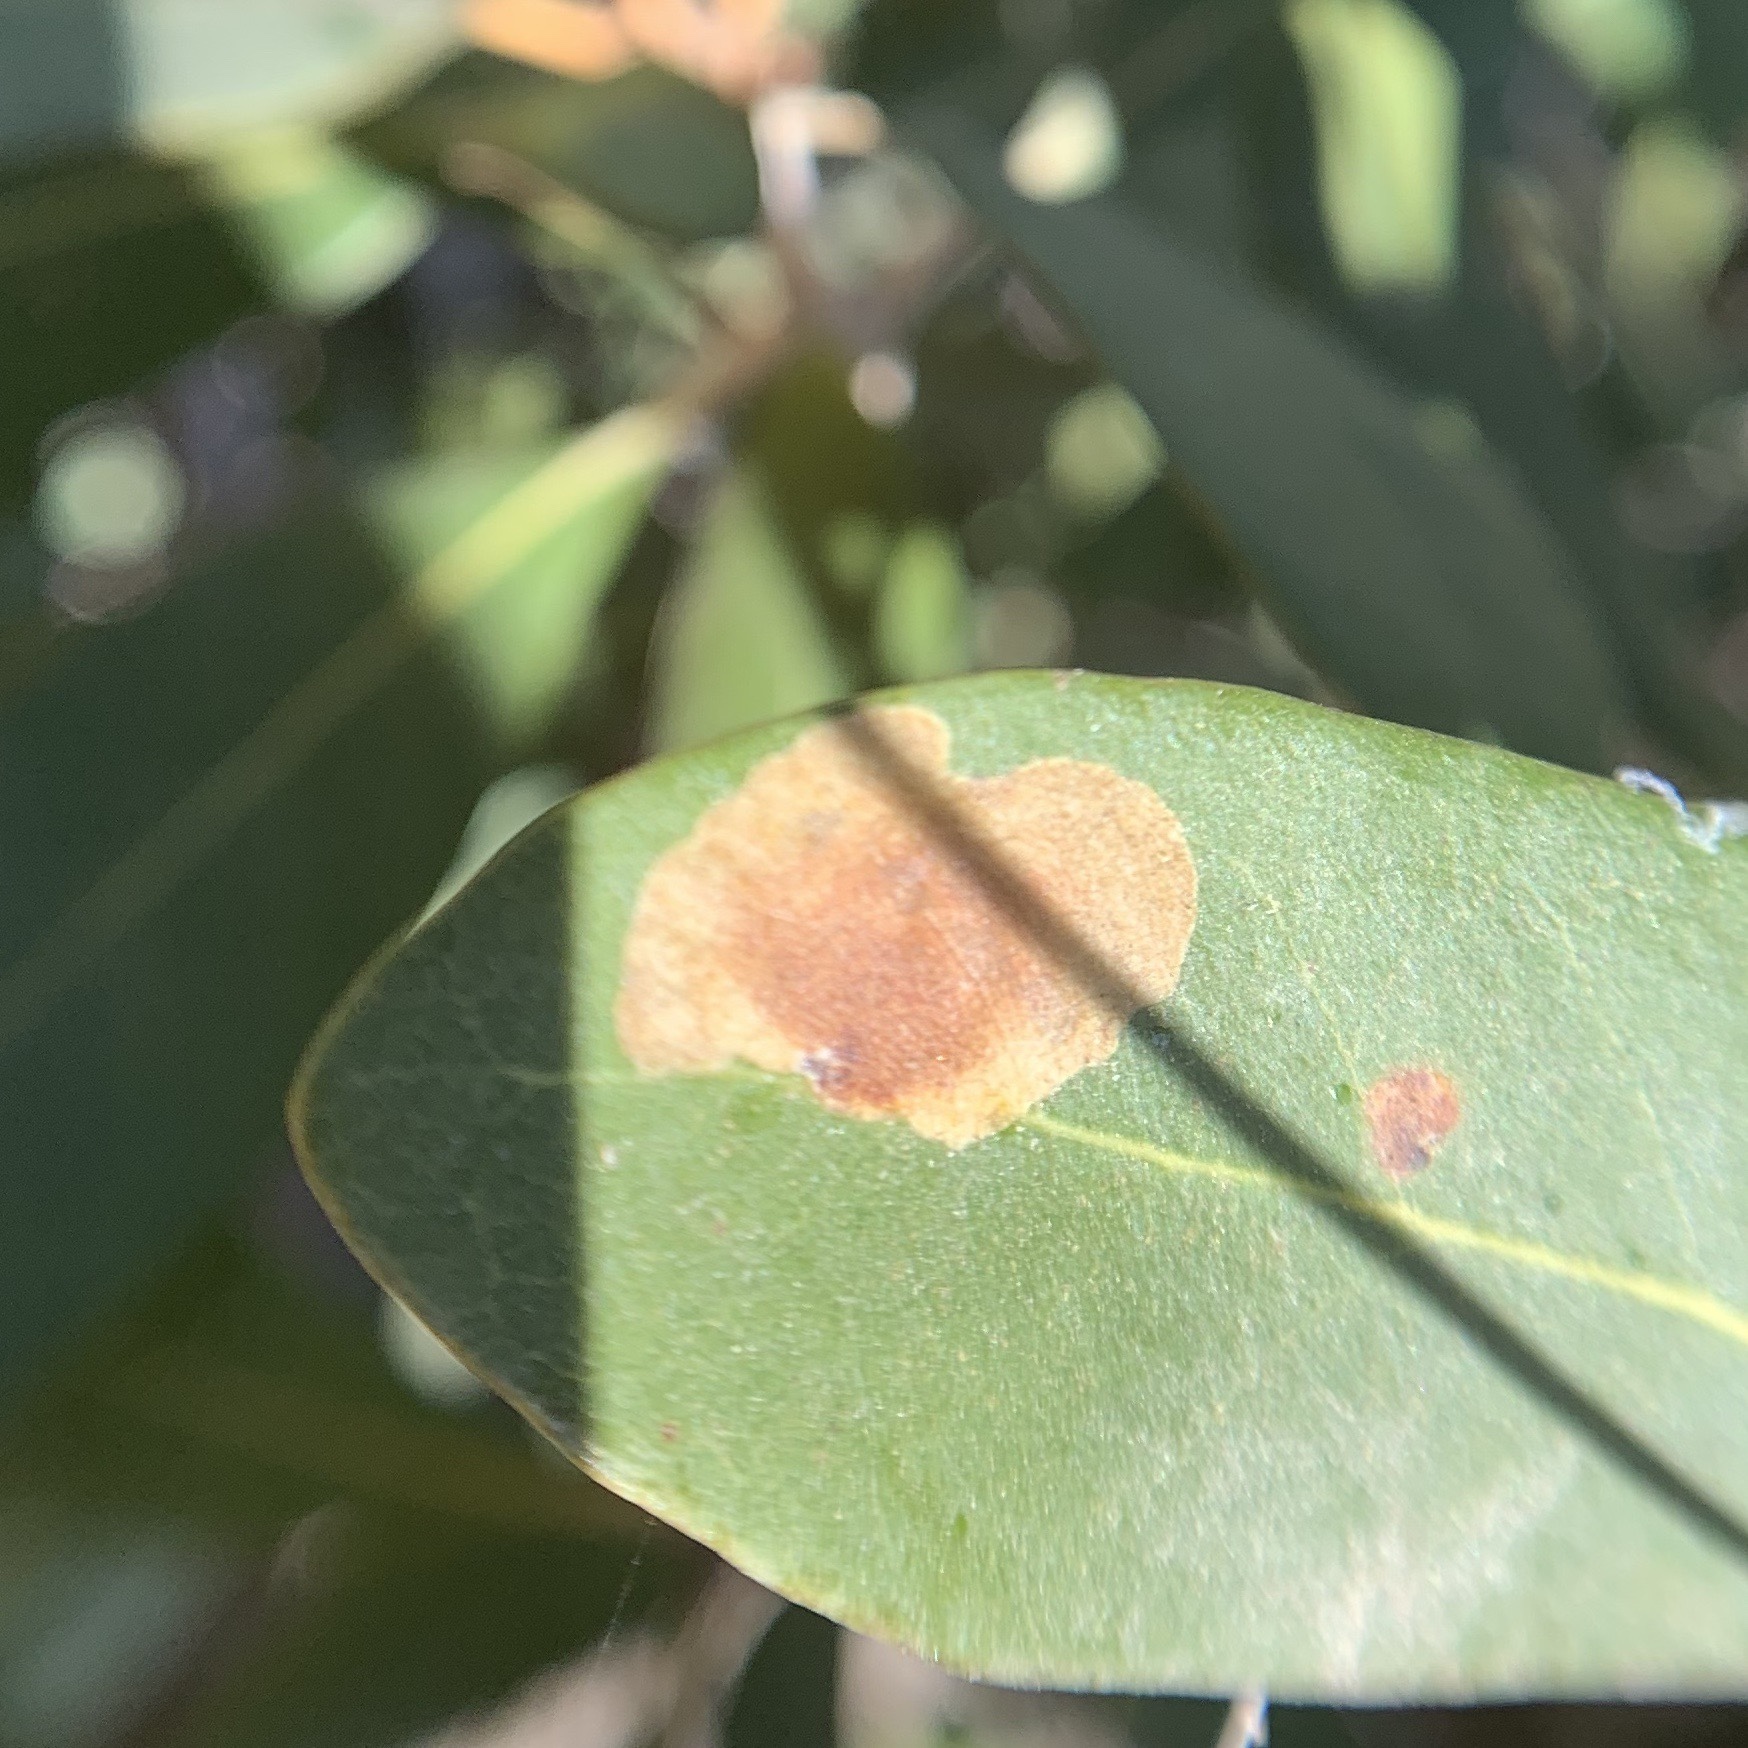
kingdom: Animalia
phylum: Arthropoda
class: Insecta
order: Lepidoptera
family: Gracillariidae
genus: Cameraria
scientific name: Cameraria sempervirensella
